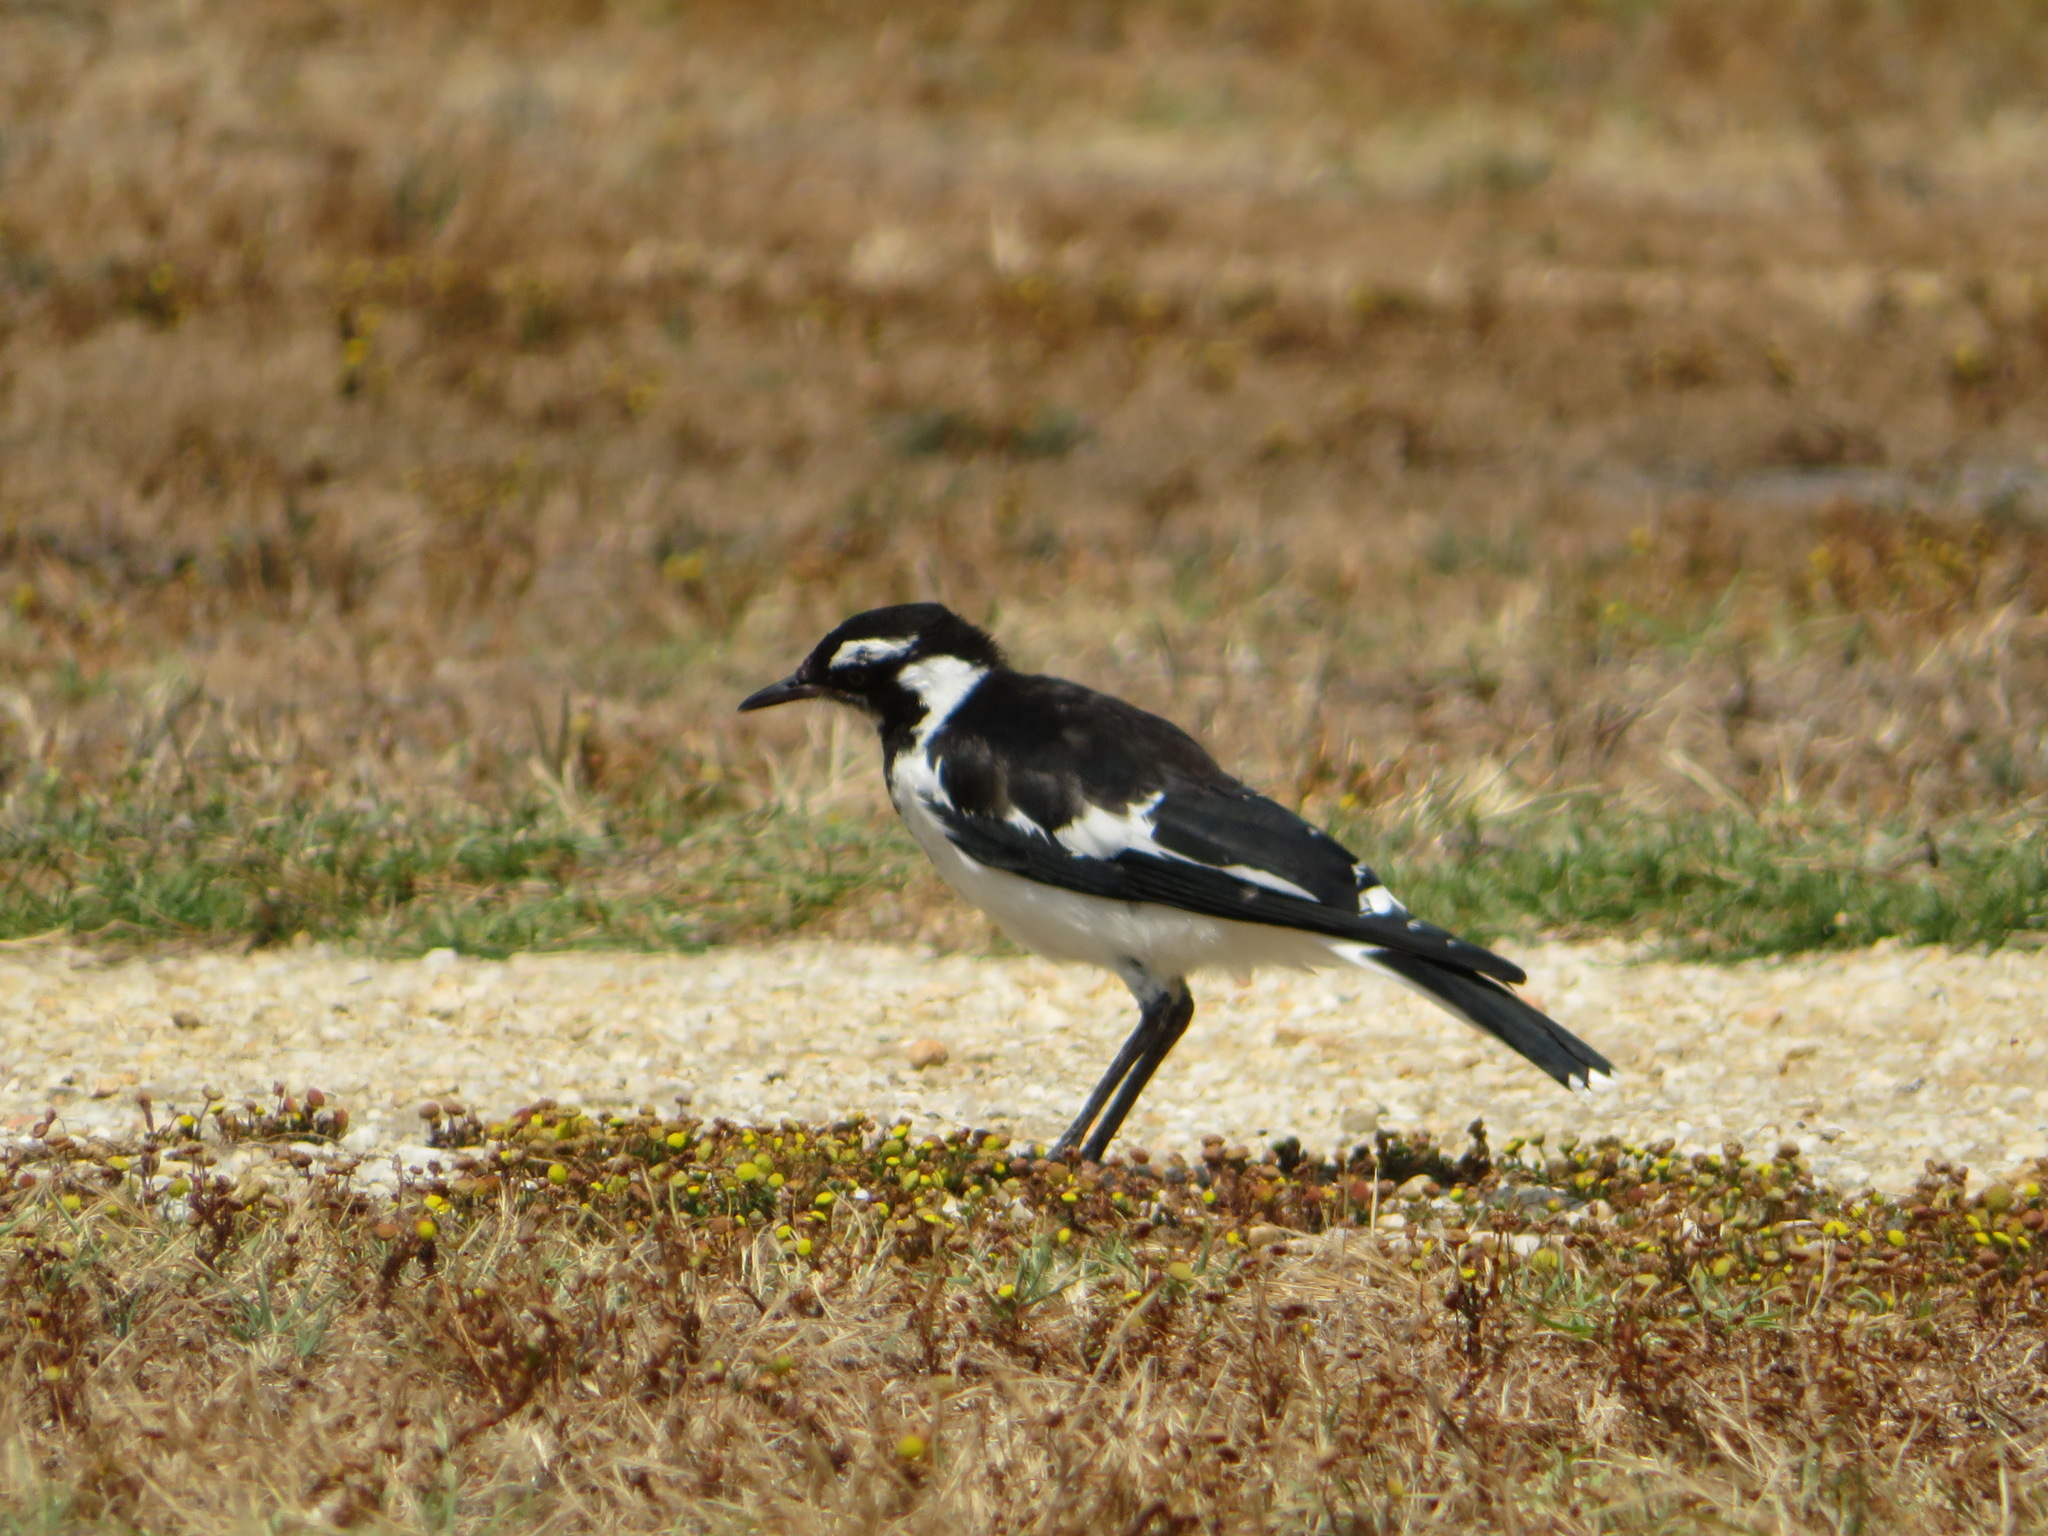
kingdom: Animalia
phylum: Chordata
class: Aves
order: Passeriformes
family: Monarchidae
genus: Grallina
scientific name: Grallina cyanoleuca
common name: Magpie-lark
